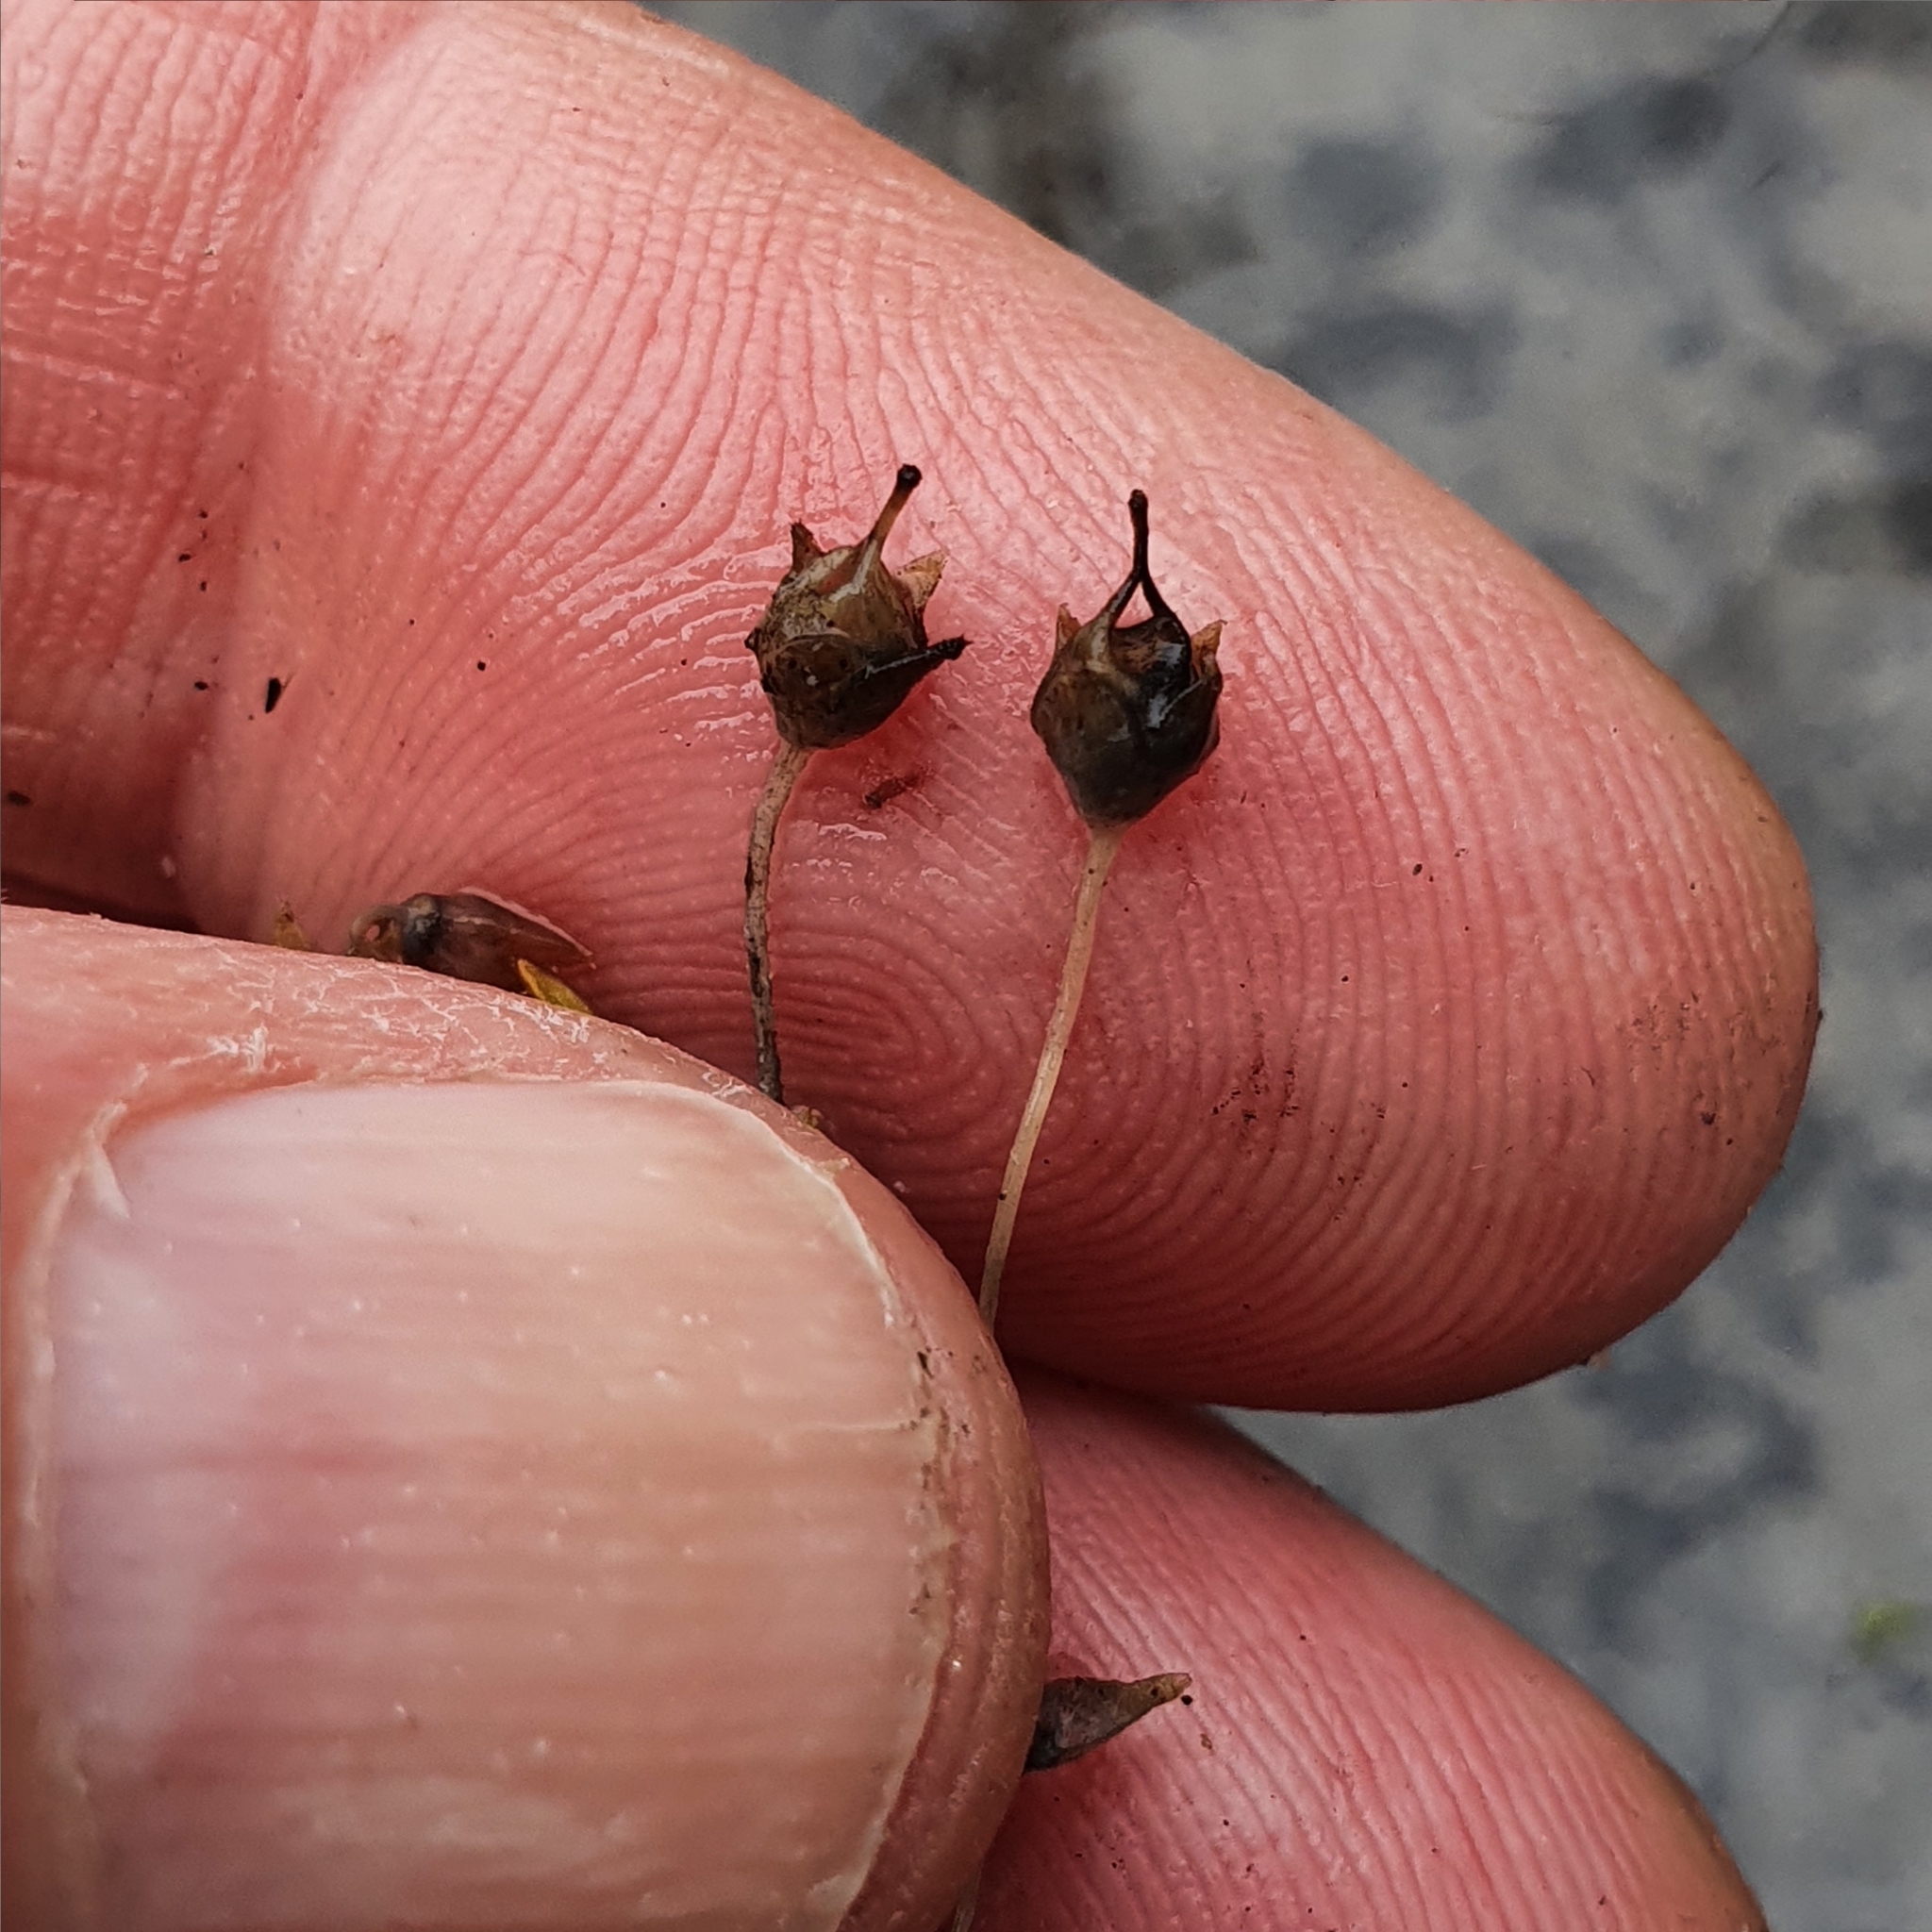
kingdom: Plantae
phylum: Tracheophyta
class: Magnoliopsida
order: Gentianales
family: Loganiaceae
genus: Mitrasacme
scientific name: Mitrasacme polymorpha
